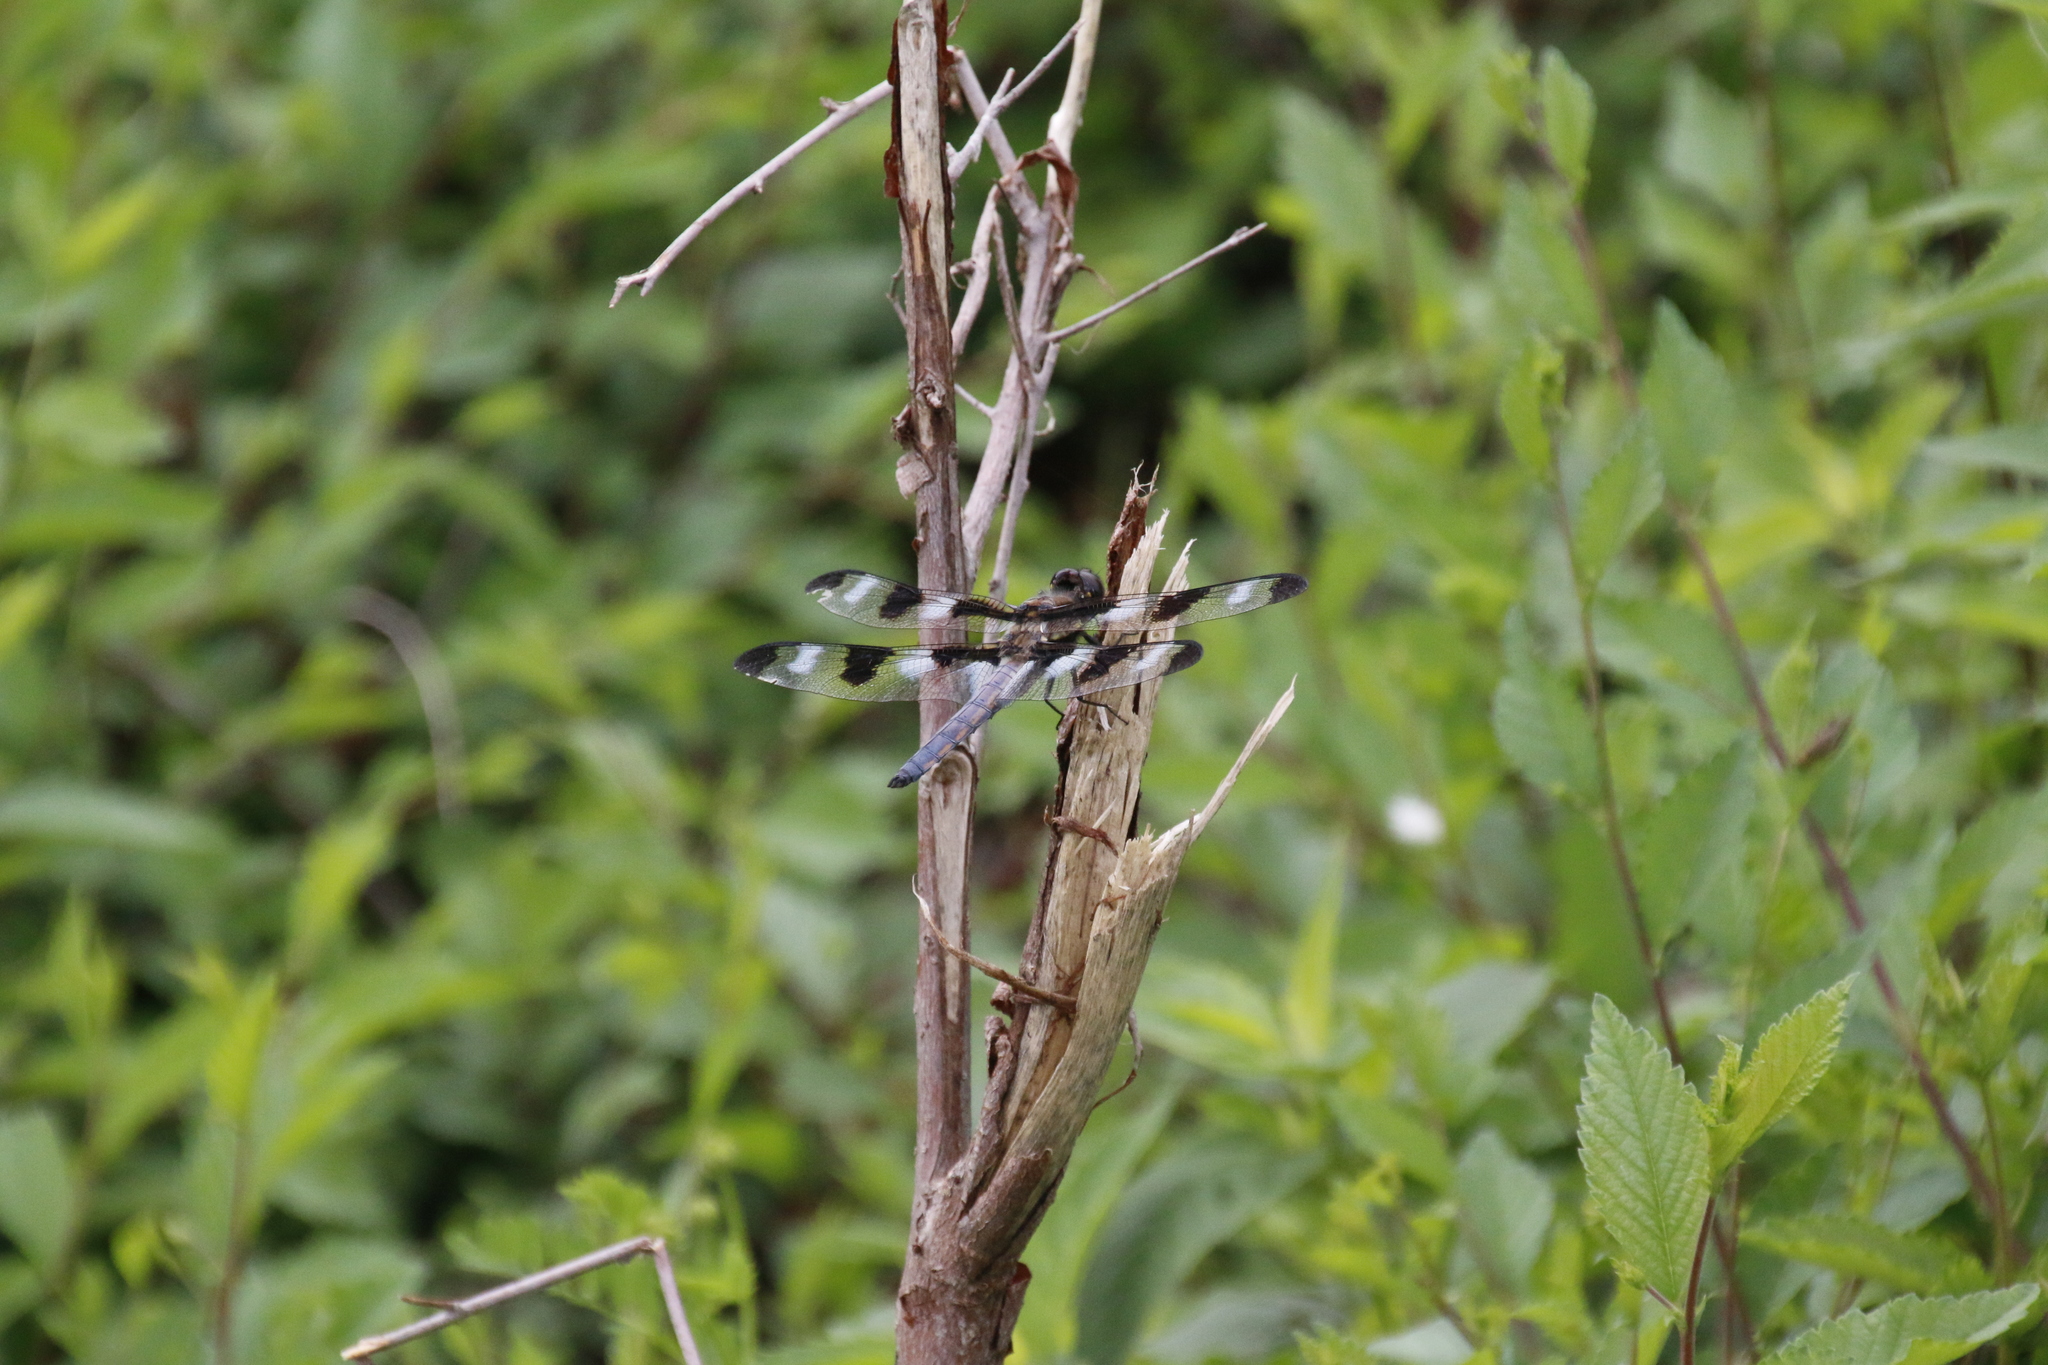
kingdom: Animalia
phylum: Arthropoda
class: Insecta
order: Odonata
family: Libellulidae
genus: Libellula
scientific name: Libellula pulchella
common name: Twelve-spotted skimmer
